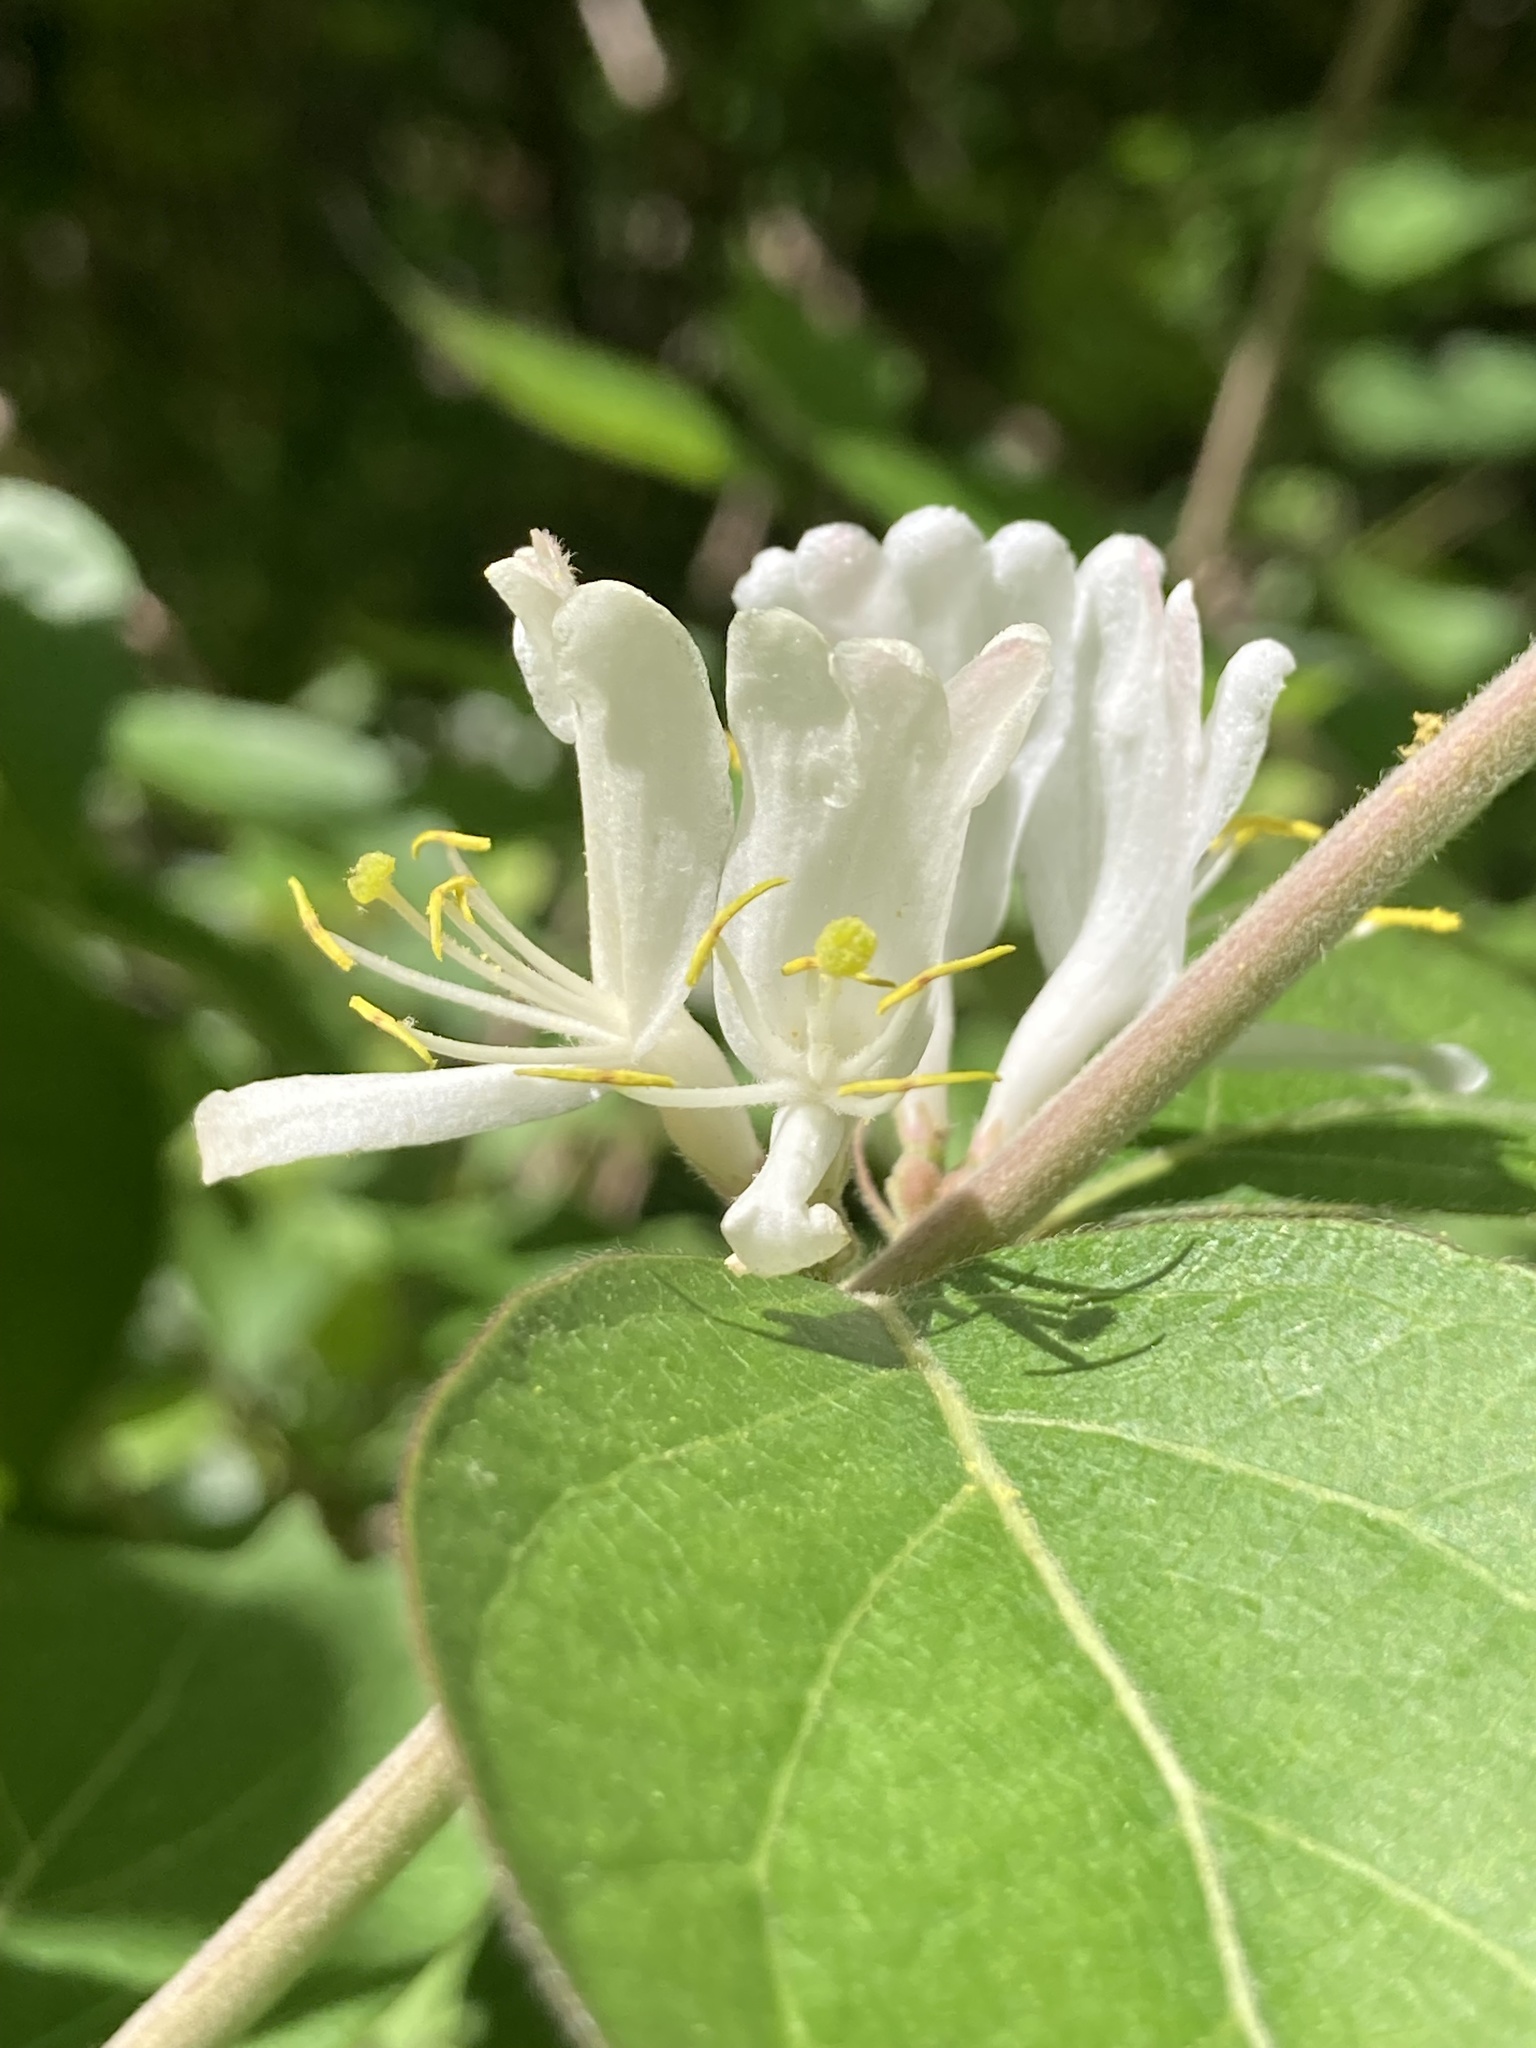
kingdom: Plantae
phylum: Tracheophyta
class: Magnoliopsida
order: Dipsacales
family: Caprifoliaceae
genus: Lonicera
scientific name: Lonicera maackii
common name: Amur honeysuckle
